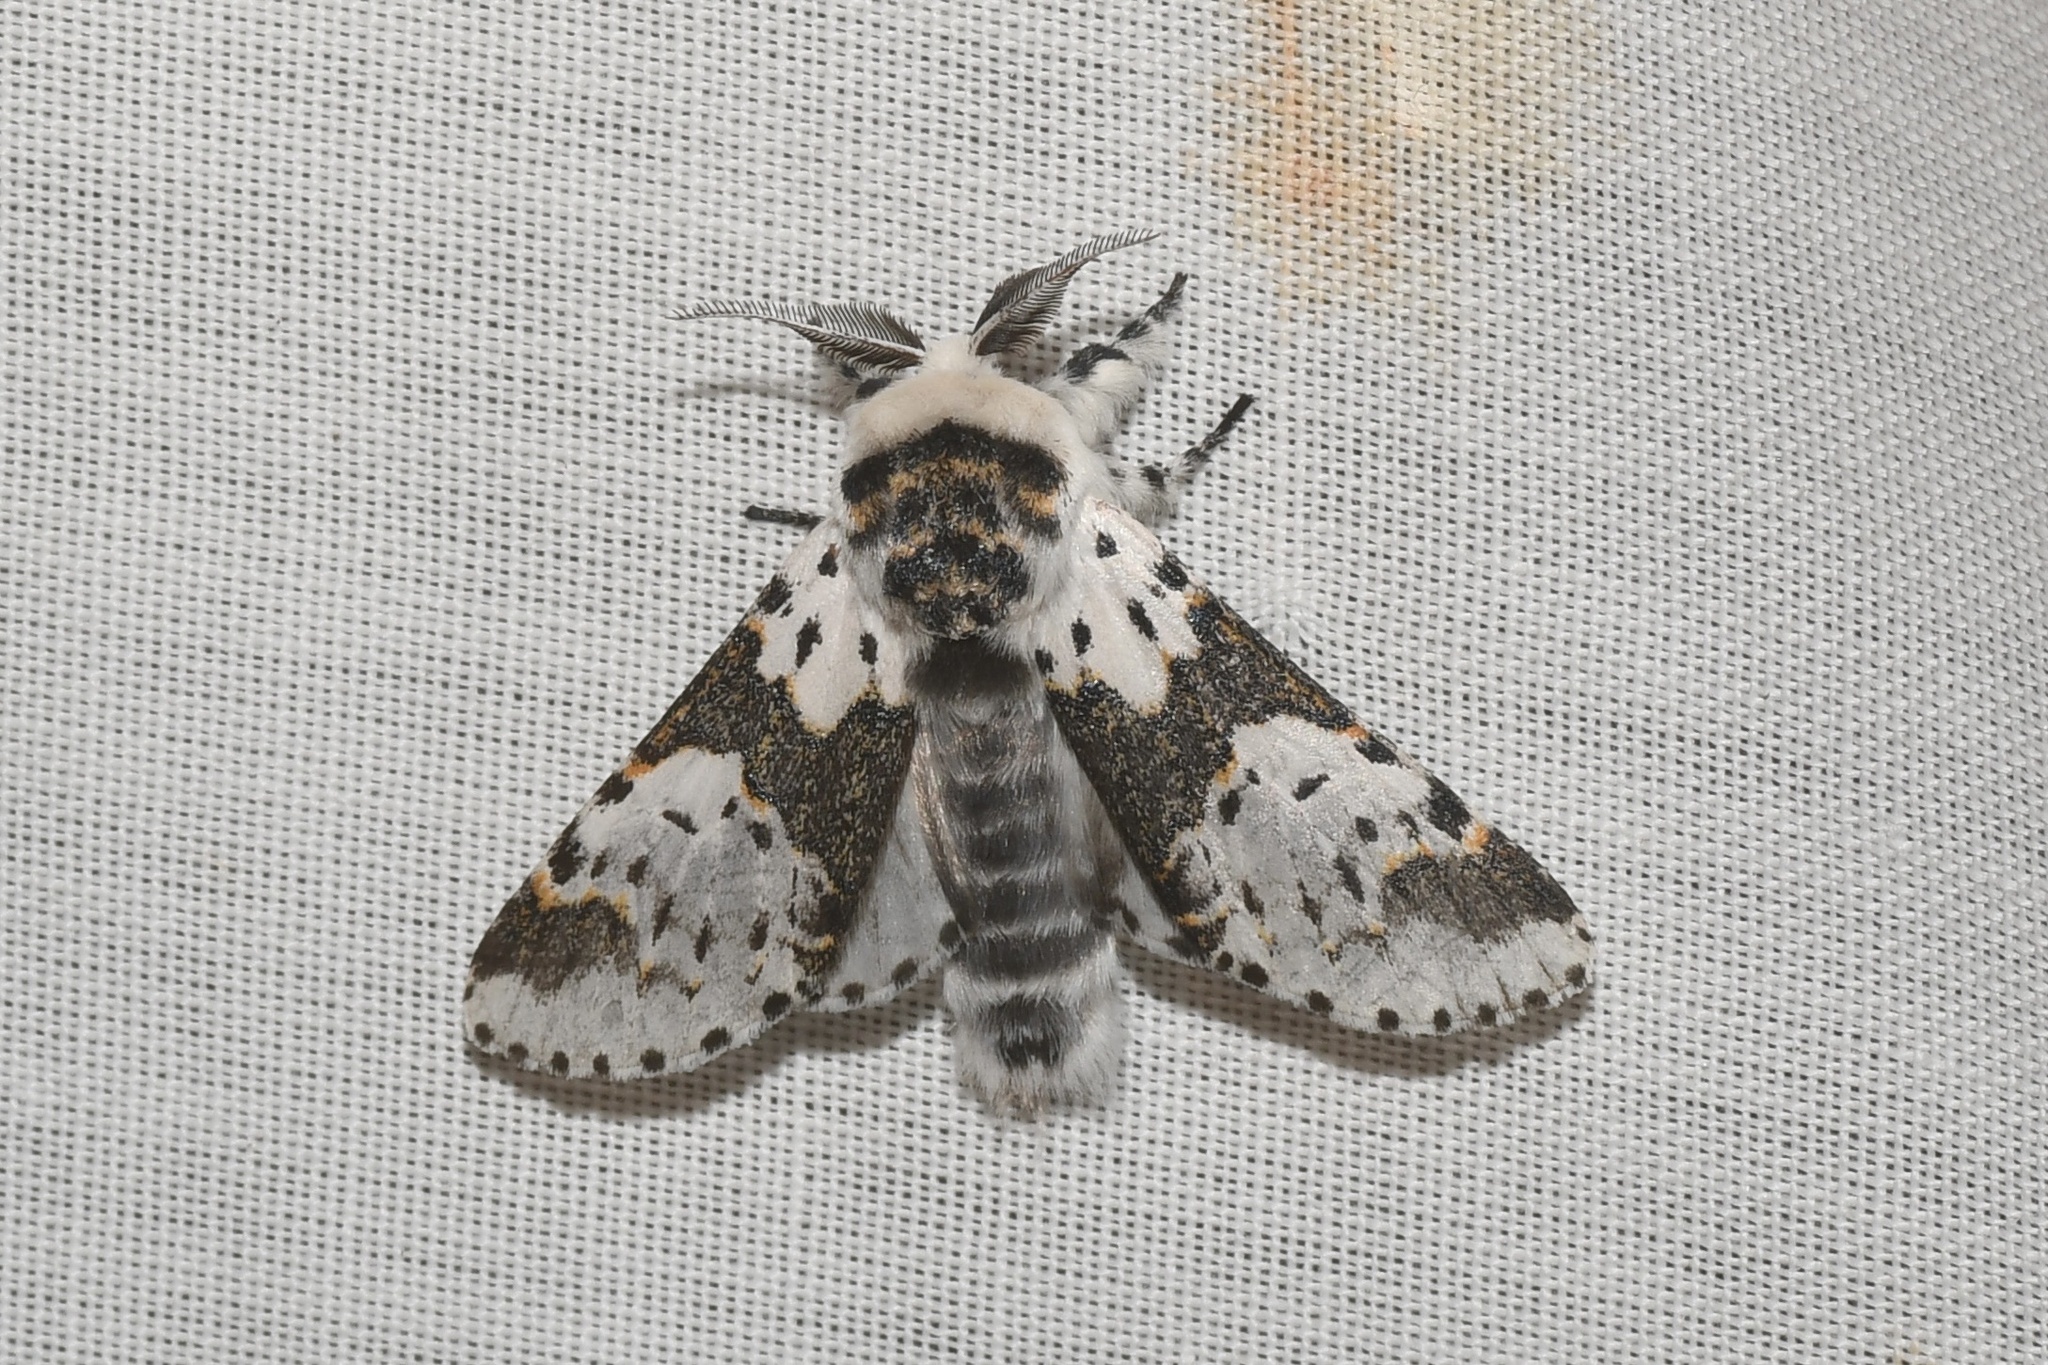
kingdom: Animalia
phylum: Arthropoda
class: Insecta
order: Lepidoptera
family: Notodontidae
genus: Furcula
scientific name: Furcula borealis
